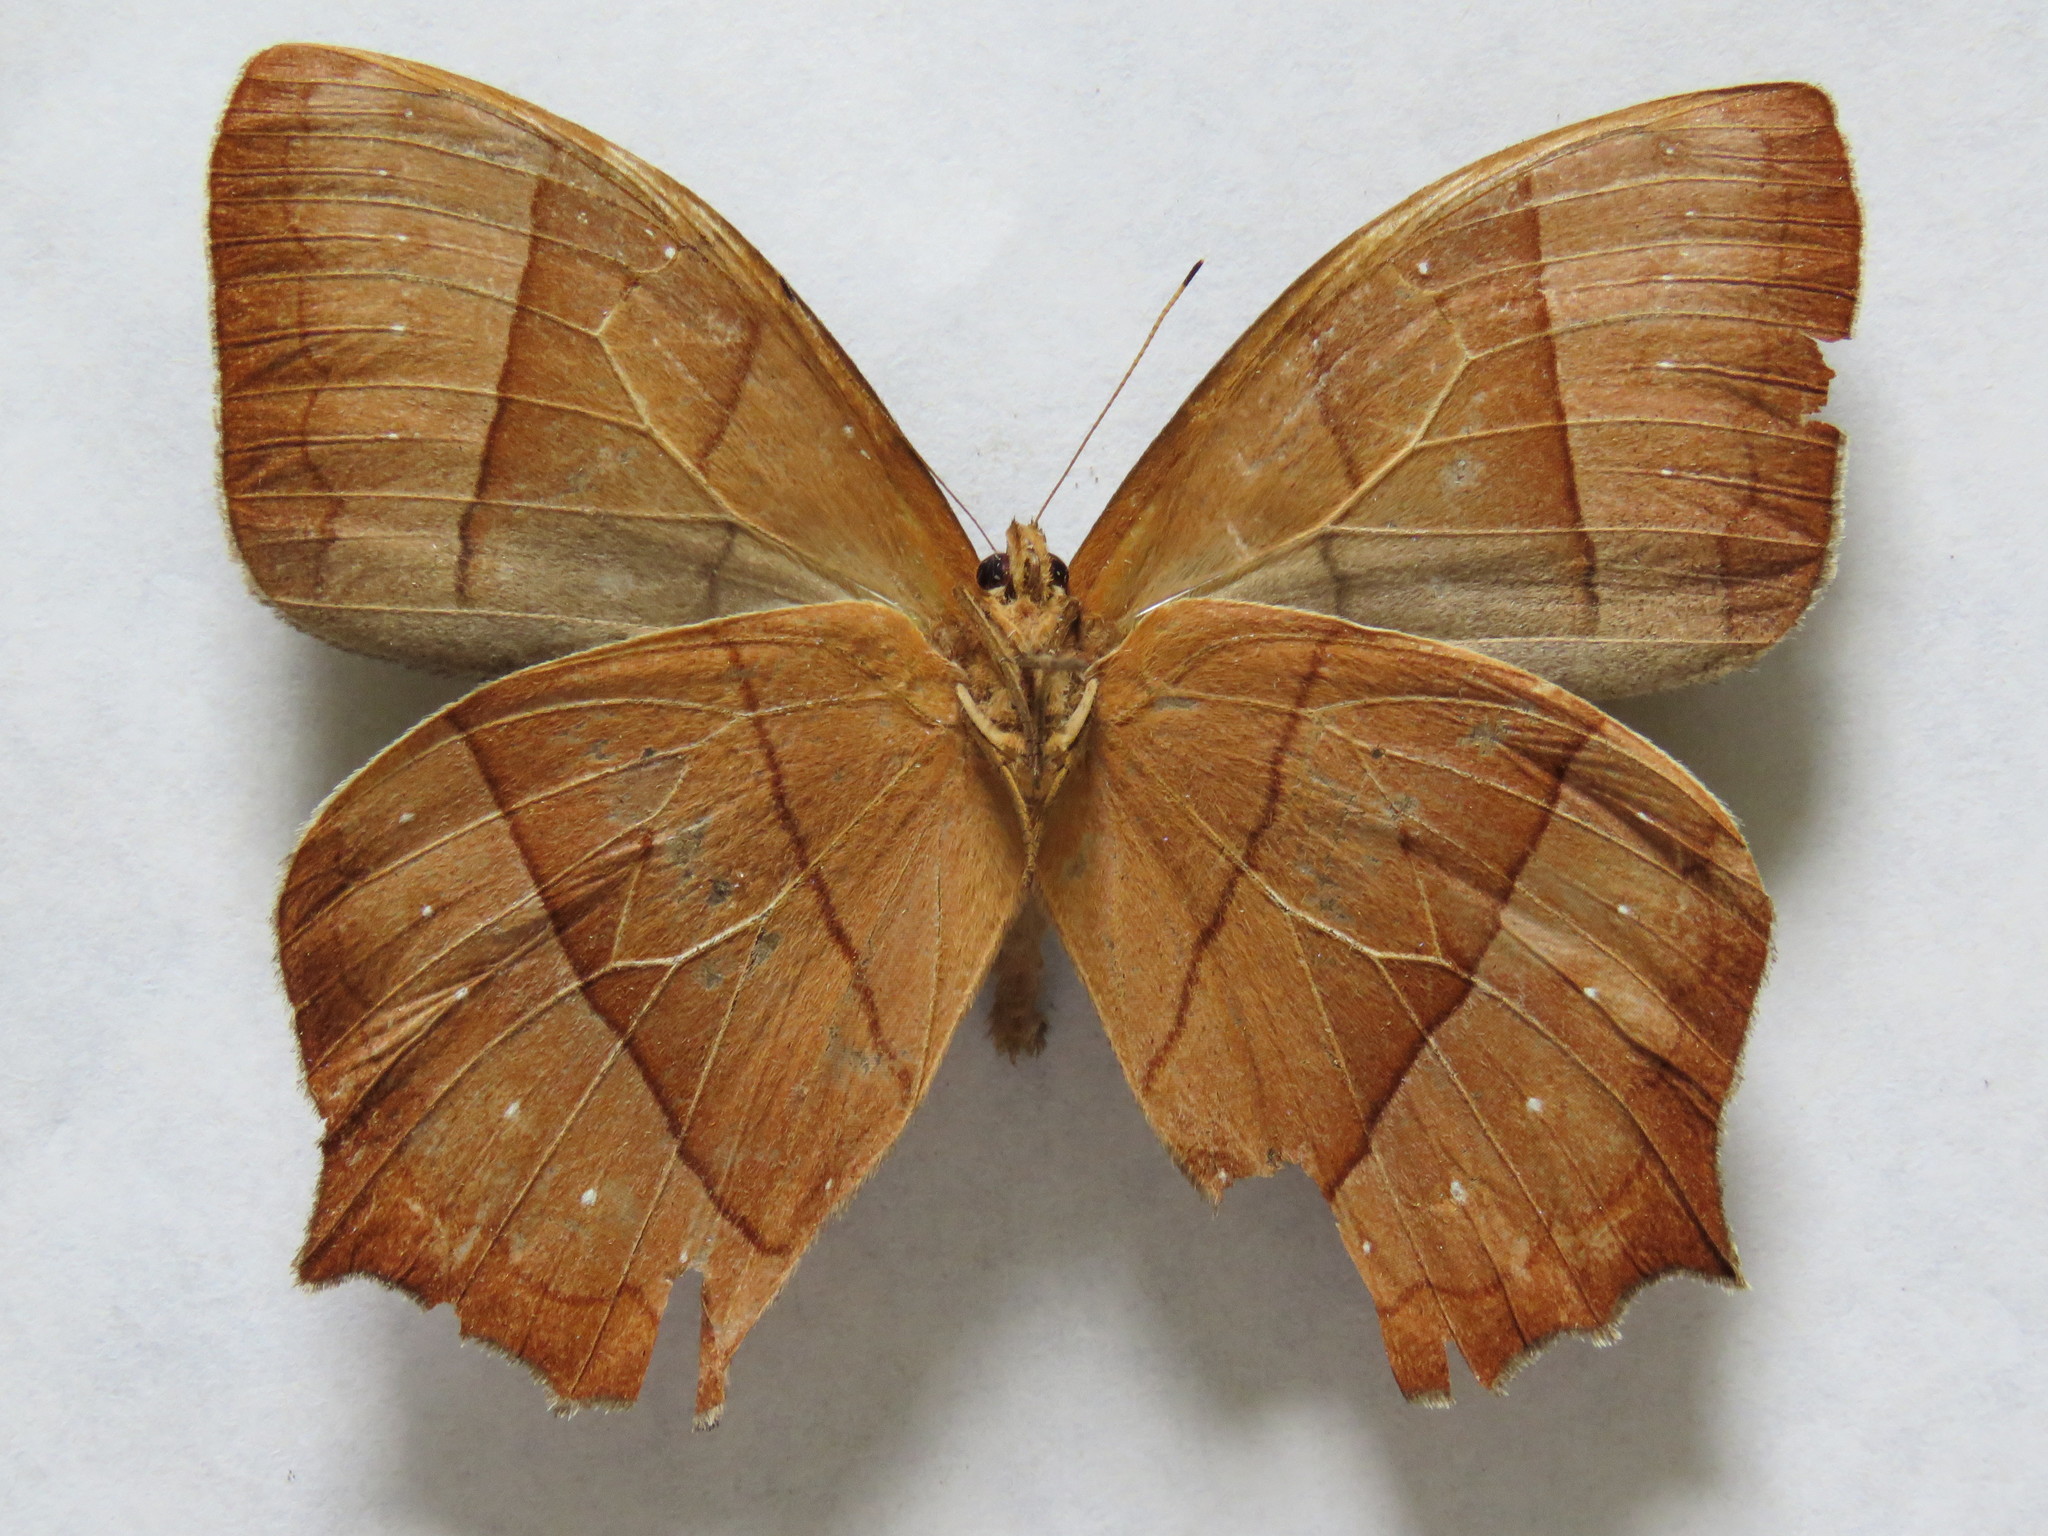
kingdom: Animalia
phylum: Arthropoda
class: Insecta
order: Lepidoptera
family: Nymphalidae
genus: Taygetis
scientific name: Taygetis virgilia
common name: Stub-tailed satyr
